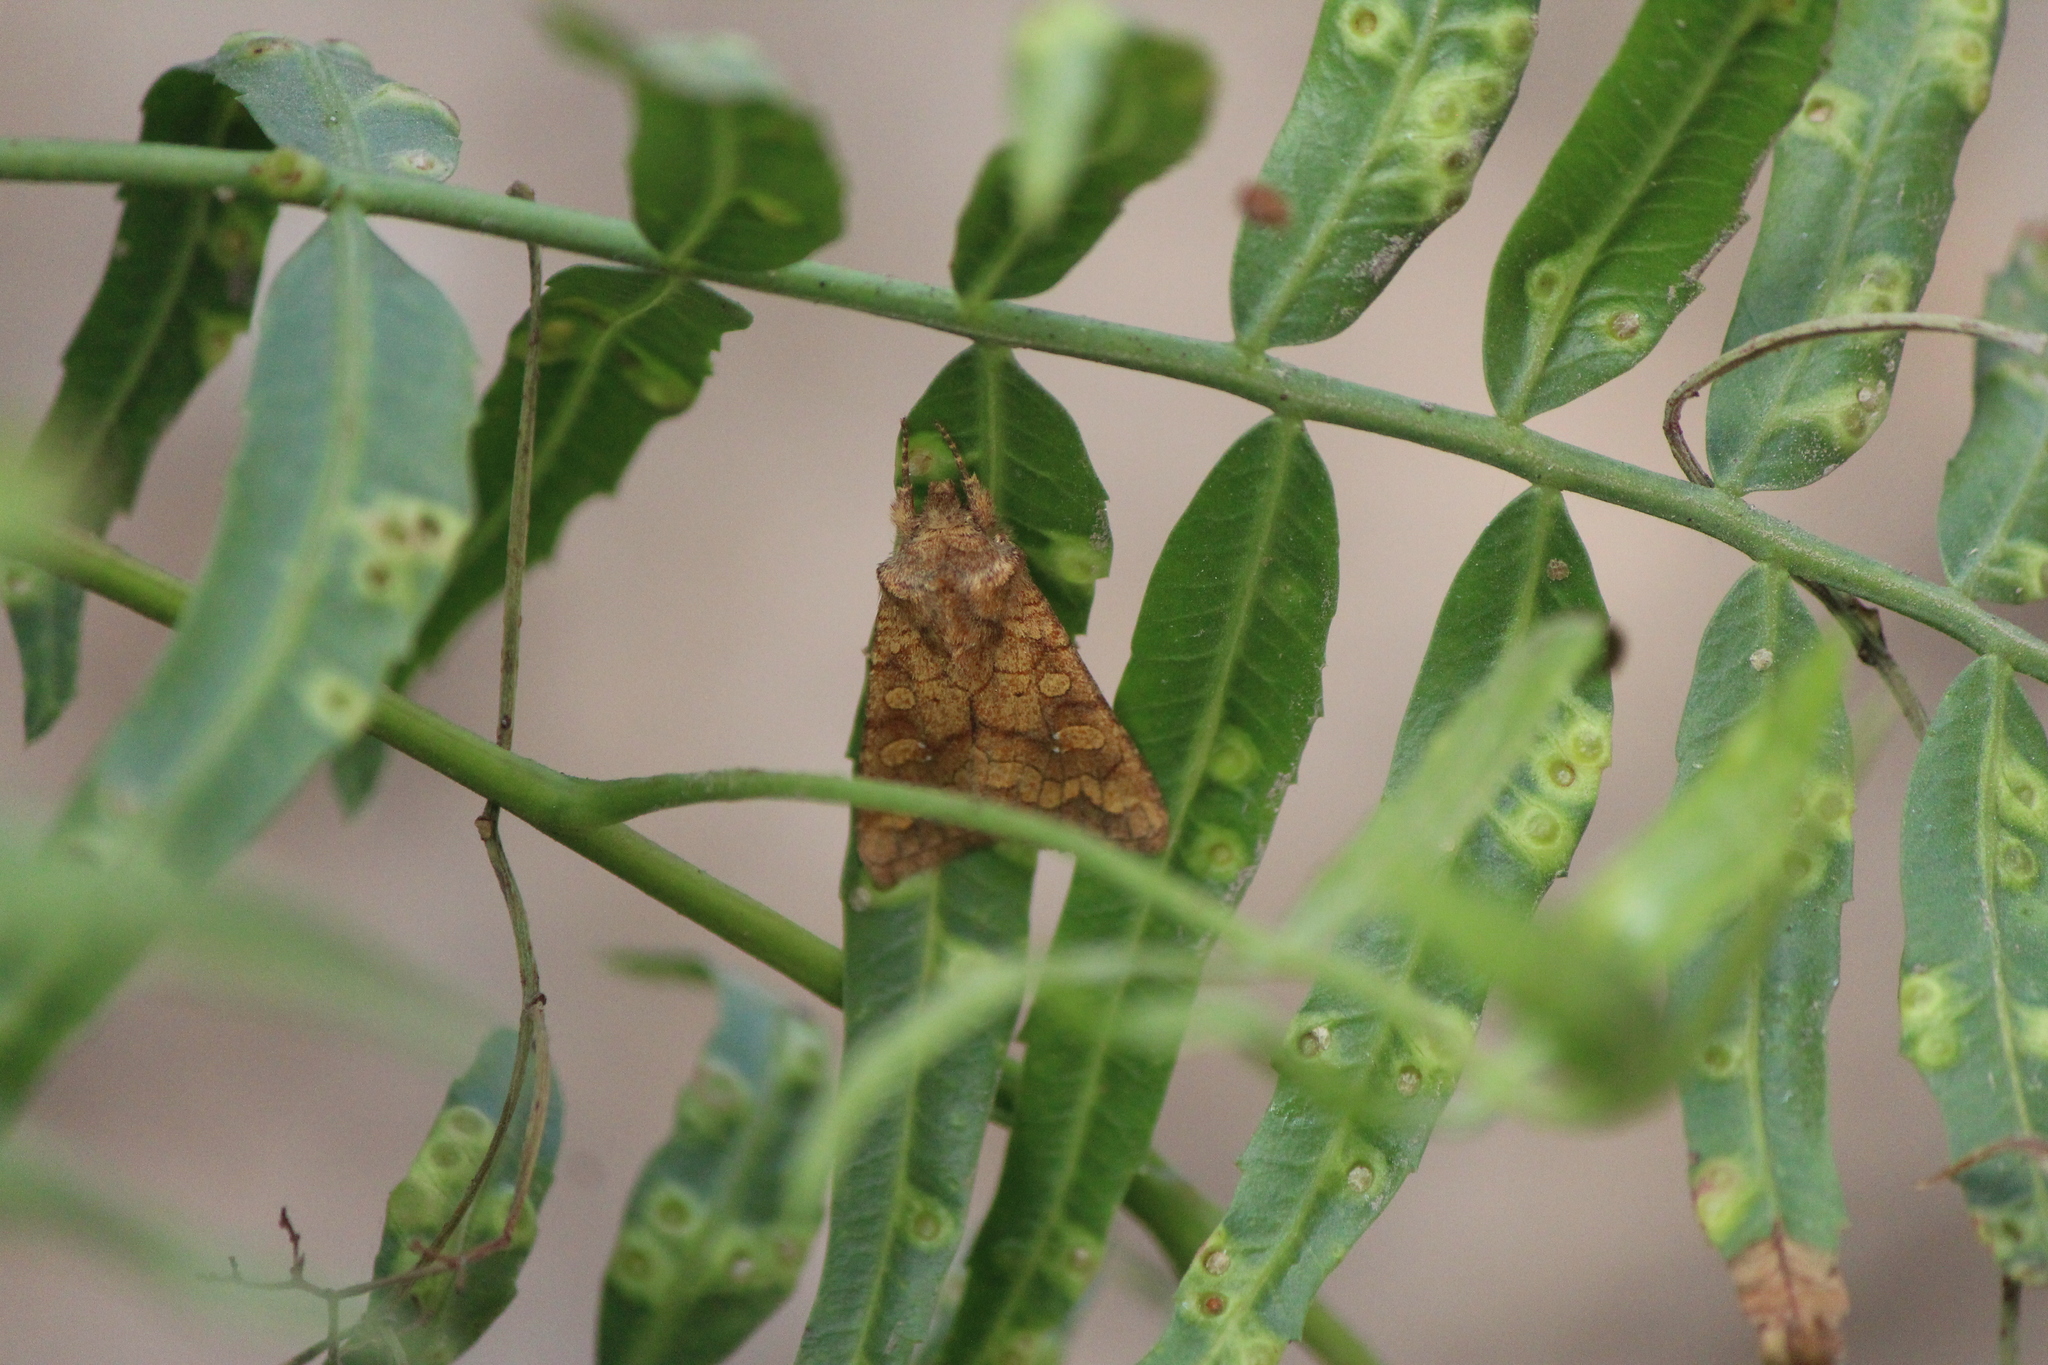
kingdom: Animalia
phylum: Arthropoda
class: Insecta
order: Lepidoptera
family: Noctuidae
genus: Hydroeciodes
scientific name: Hydroeciodes azteca
